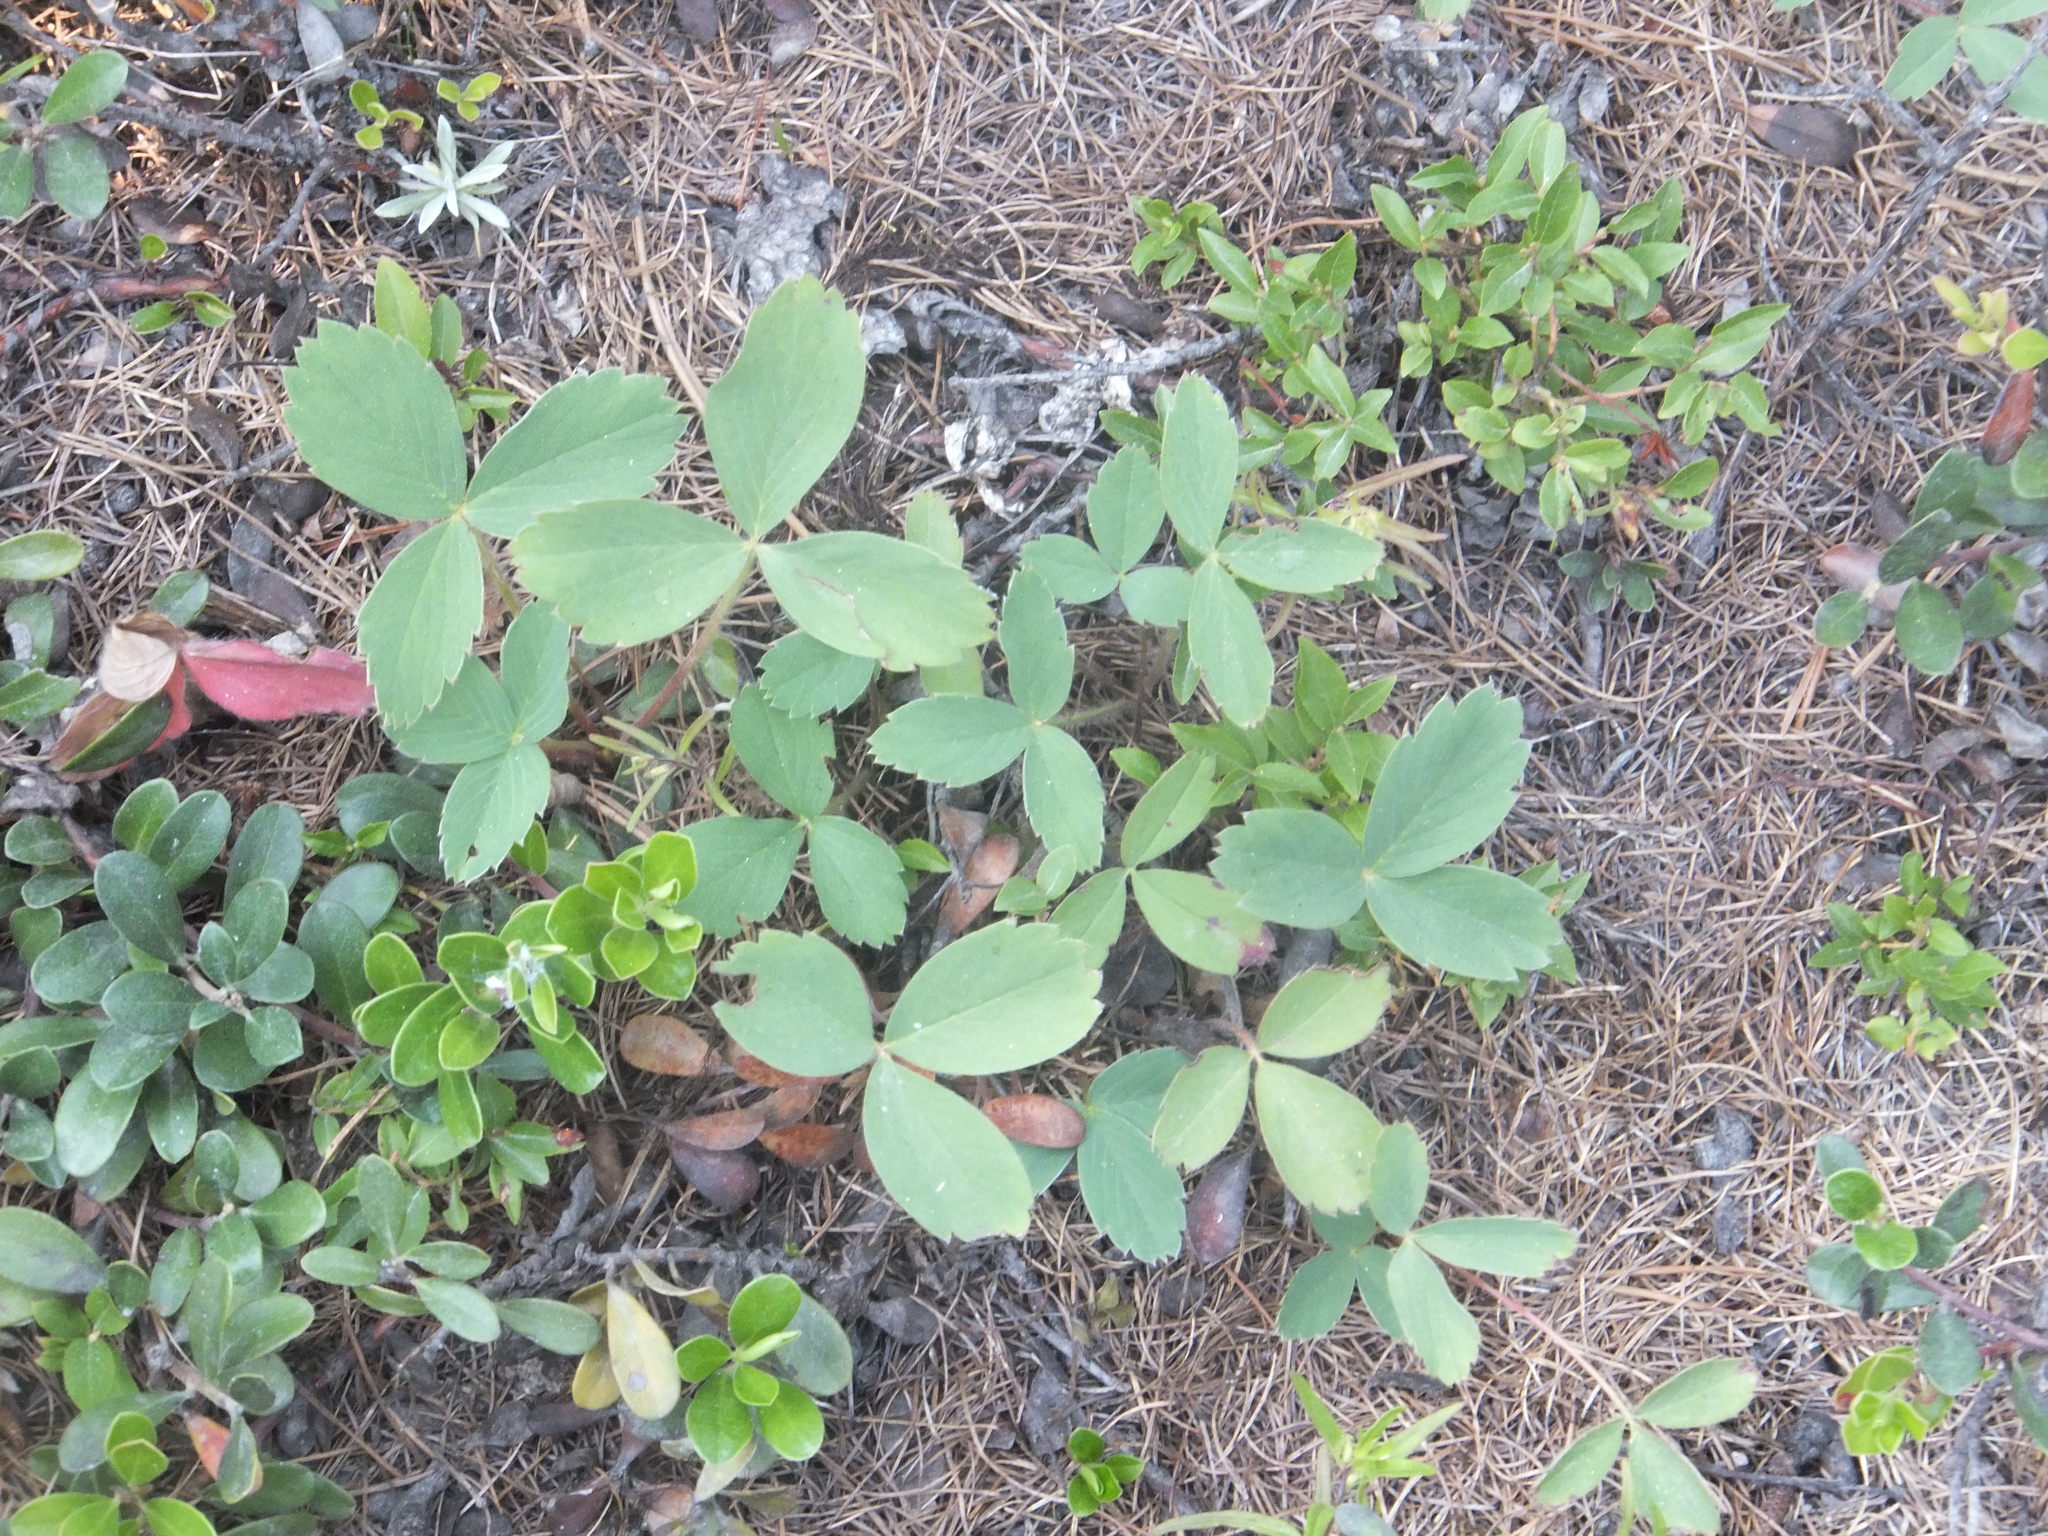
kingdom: Plantae
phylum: Tracheophyta
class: Magnoliopsida
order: Rosales
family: Rosaceae
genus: Fragaria
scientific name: Fragaria virginiana
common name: Thickleaved wild strawberry
